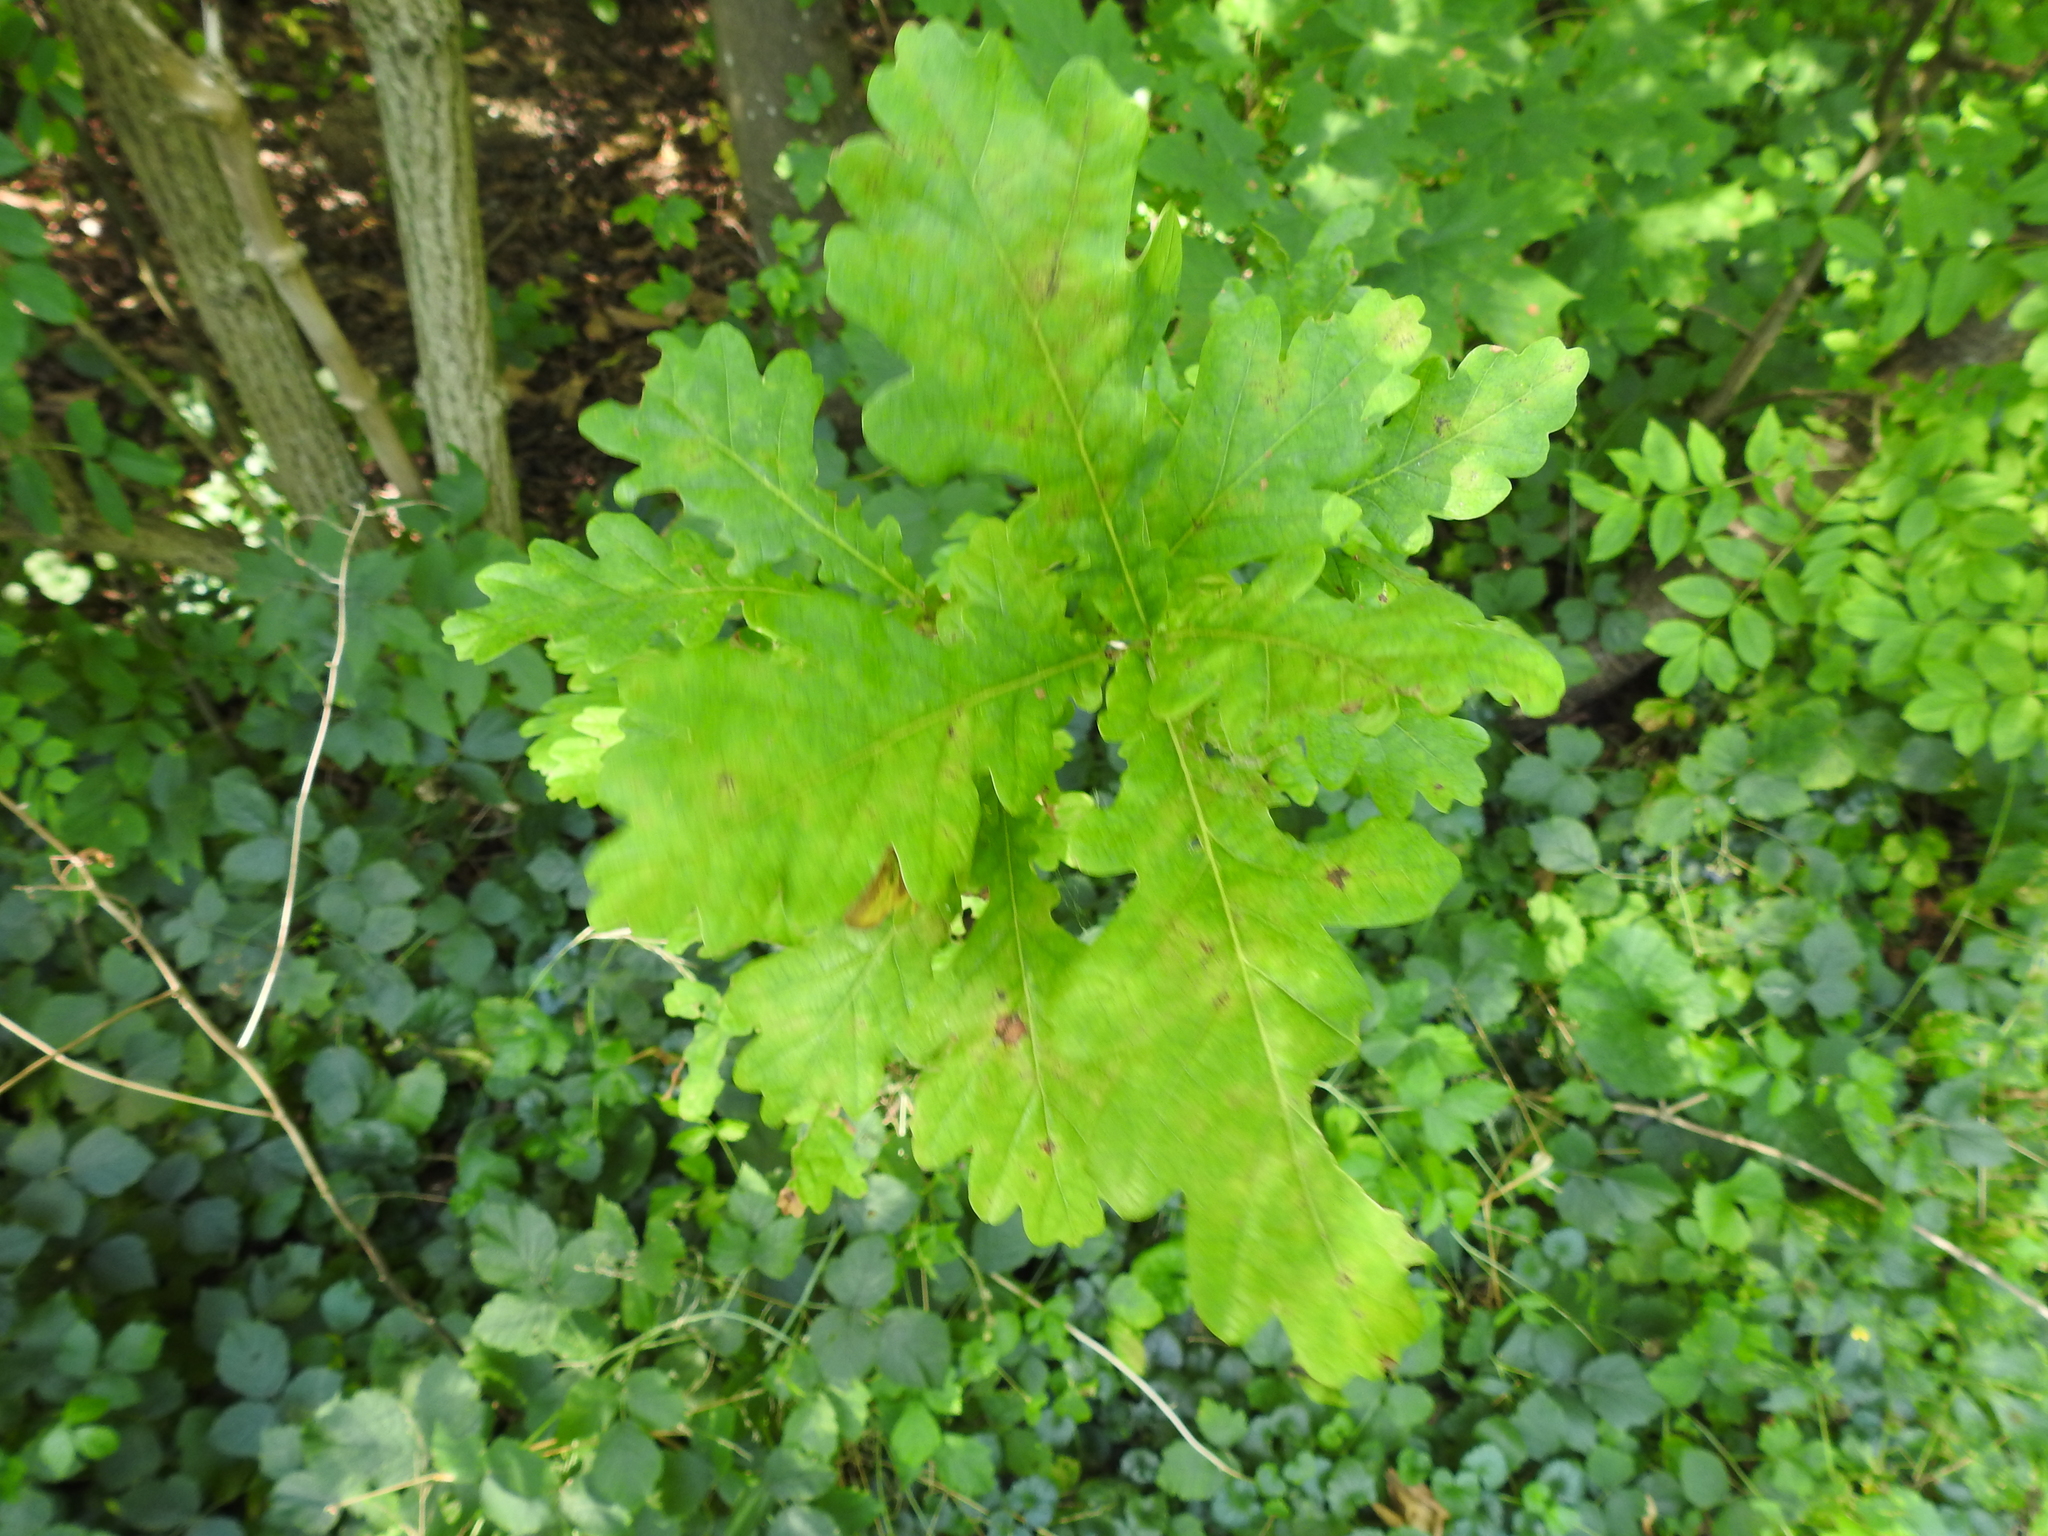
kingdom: Plantae
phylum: Tracheophyta
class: Magnoliopsida
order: Fagales
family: Fagaceae
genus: Quercus
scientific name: Quercus robur
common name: Pedunculate oak
